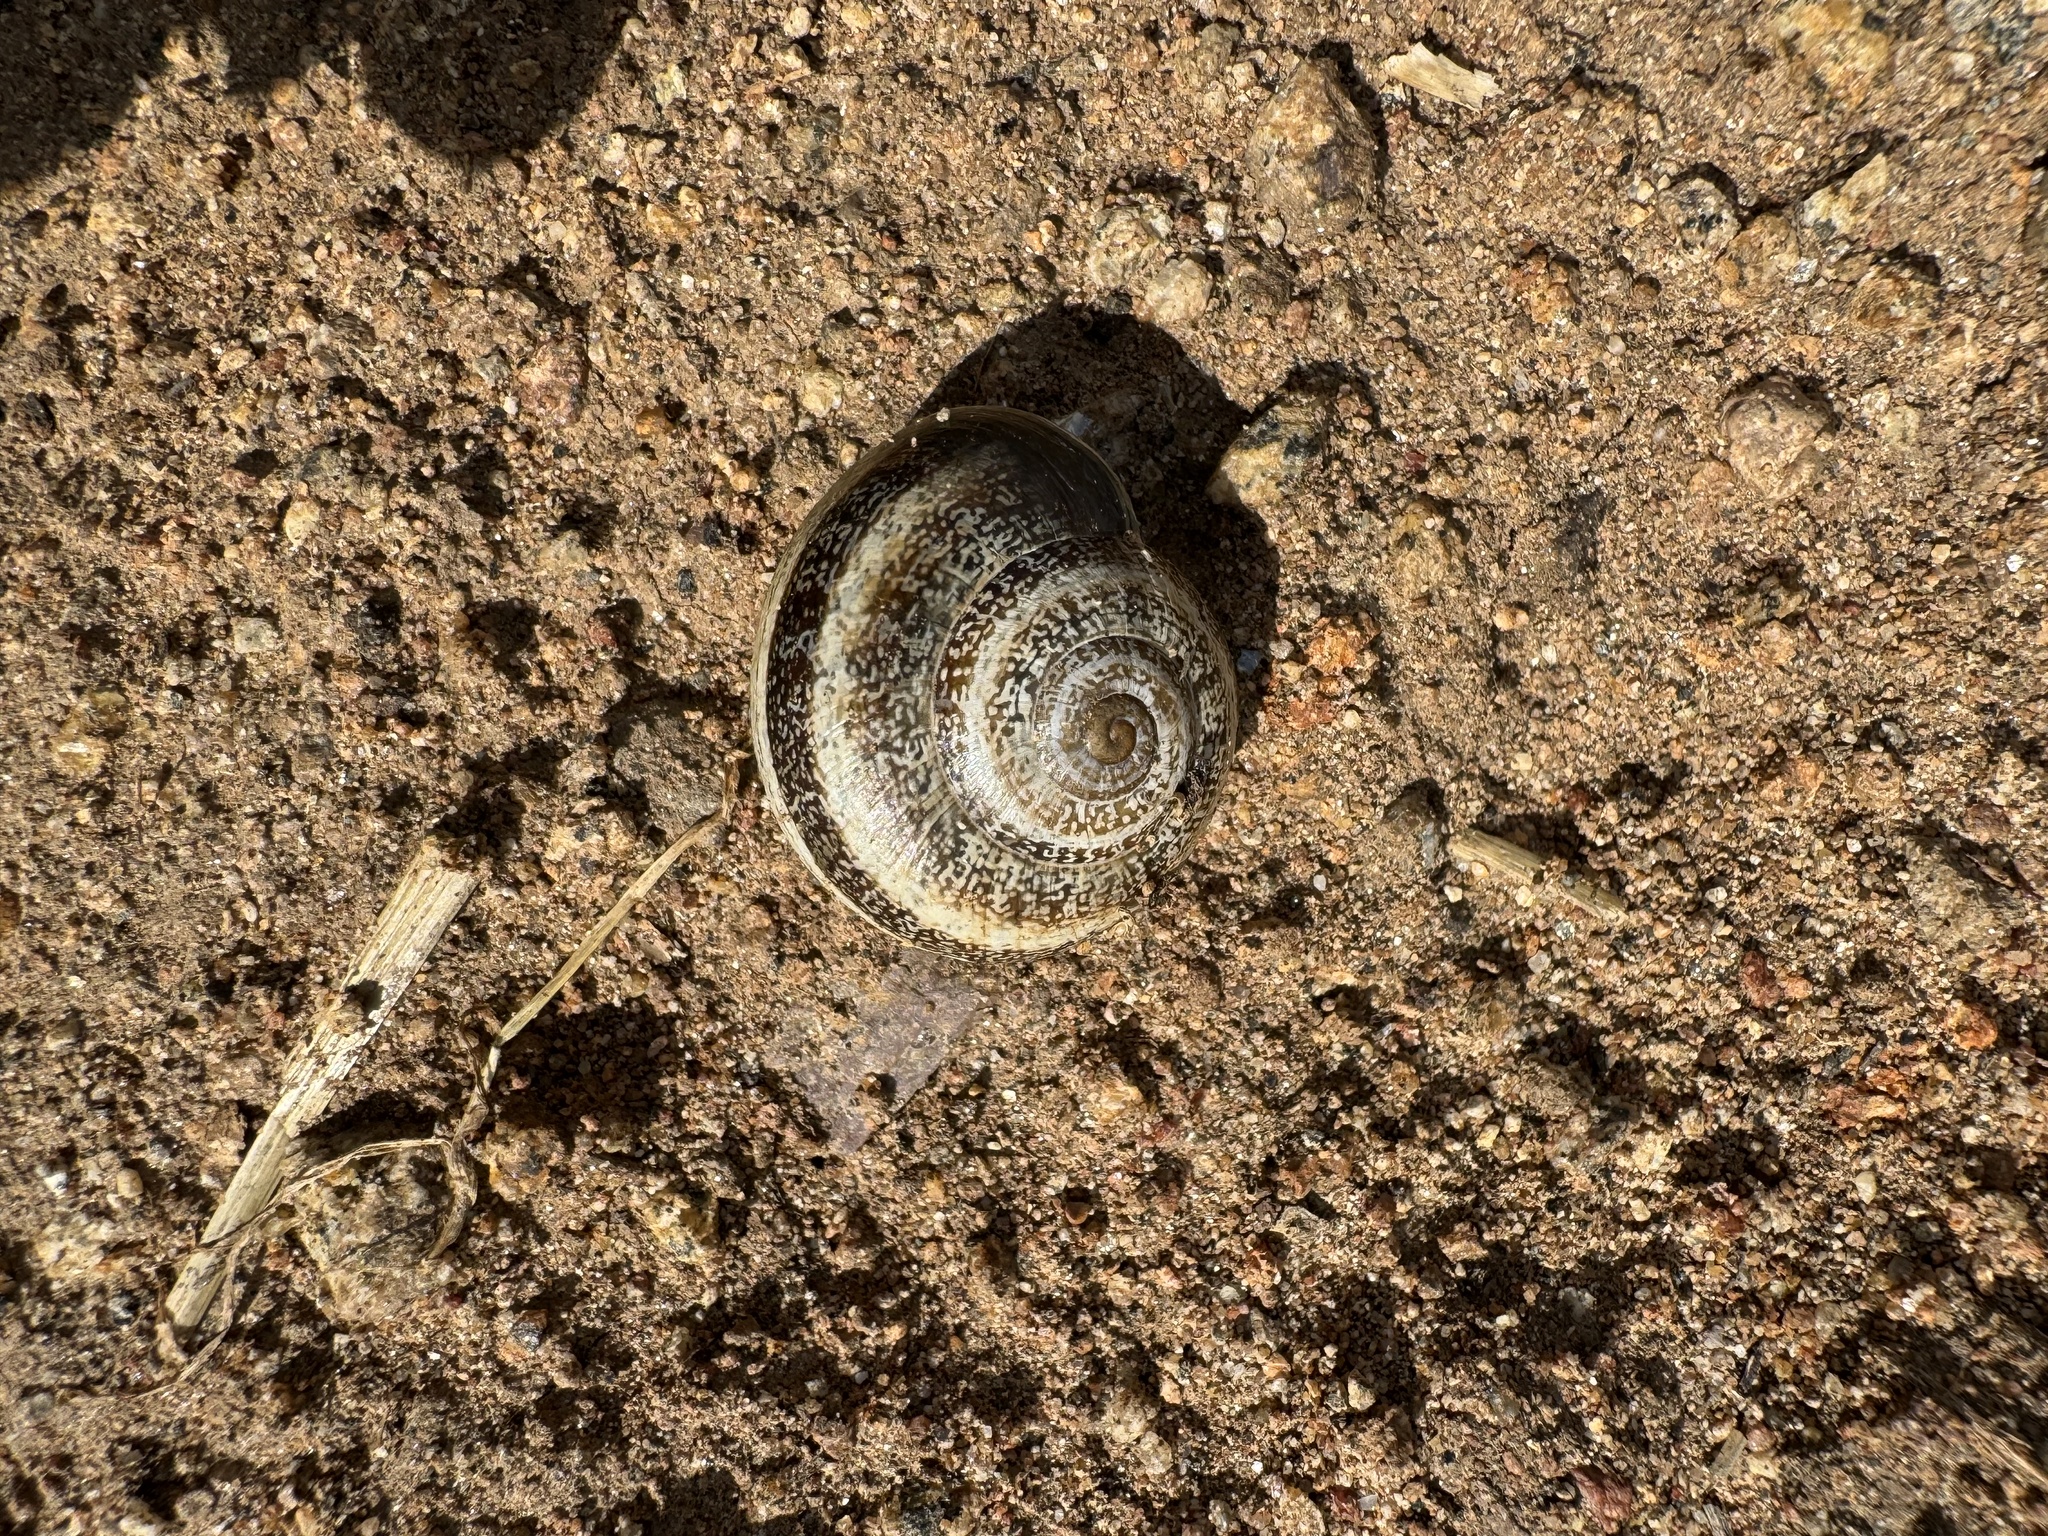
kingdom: Animalia
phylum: Mollusca
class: Gastropoda
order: Stylommatophora
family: Helicidae
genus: Otala
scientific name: Otala lactea
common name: Milk snail
